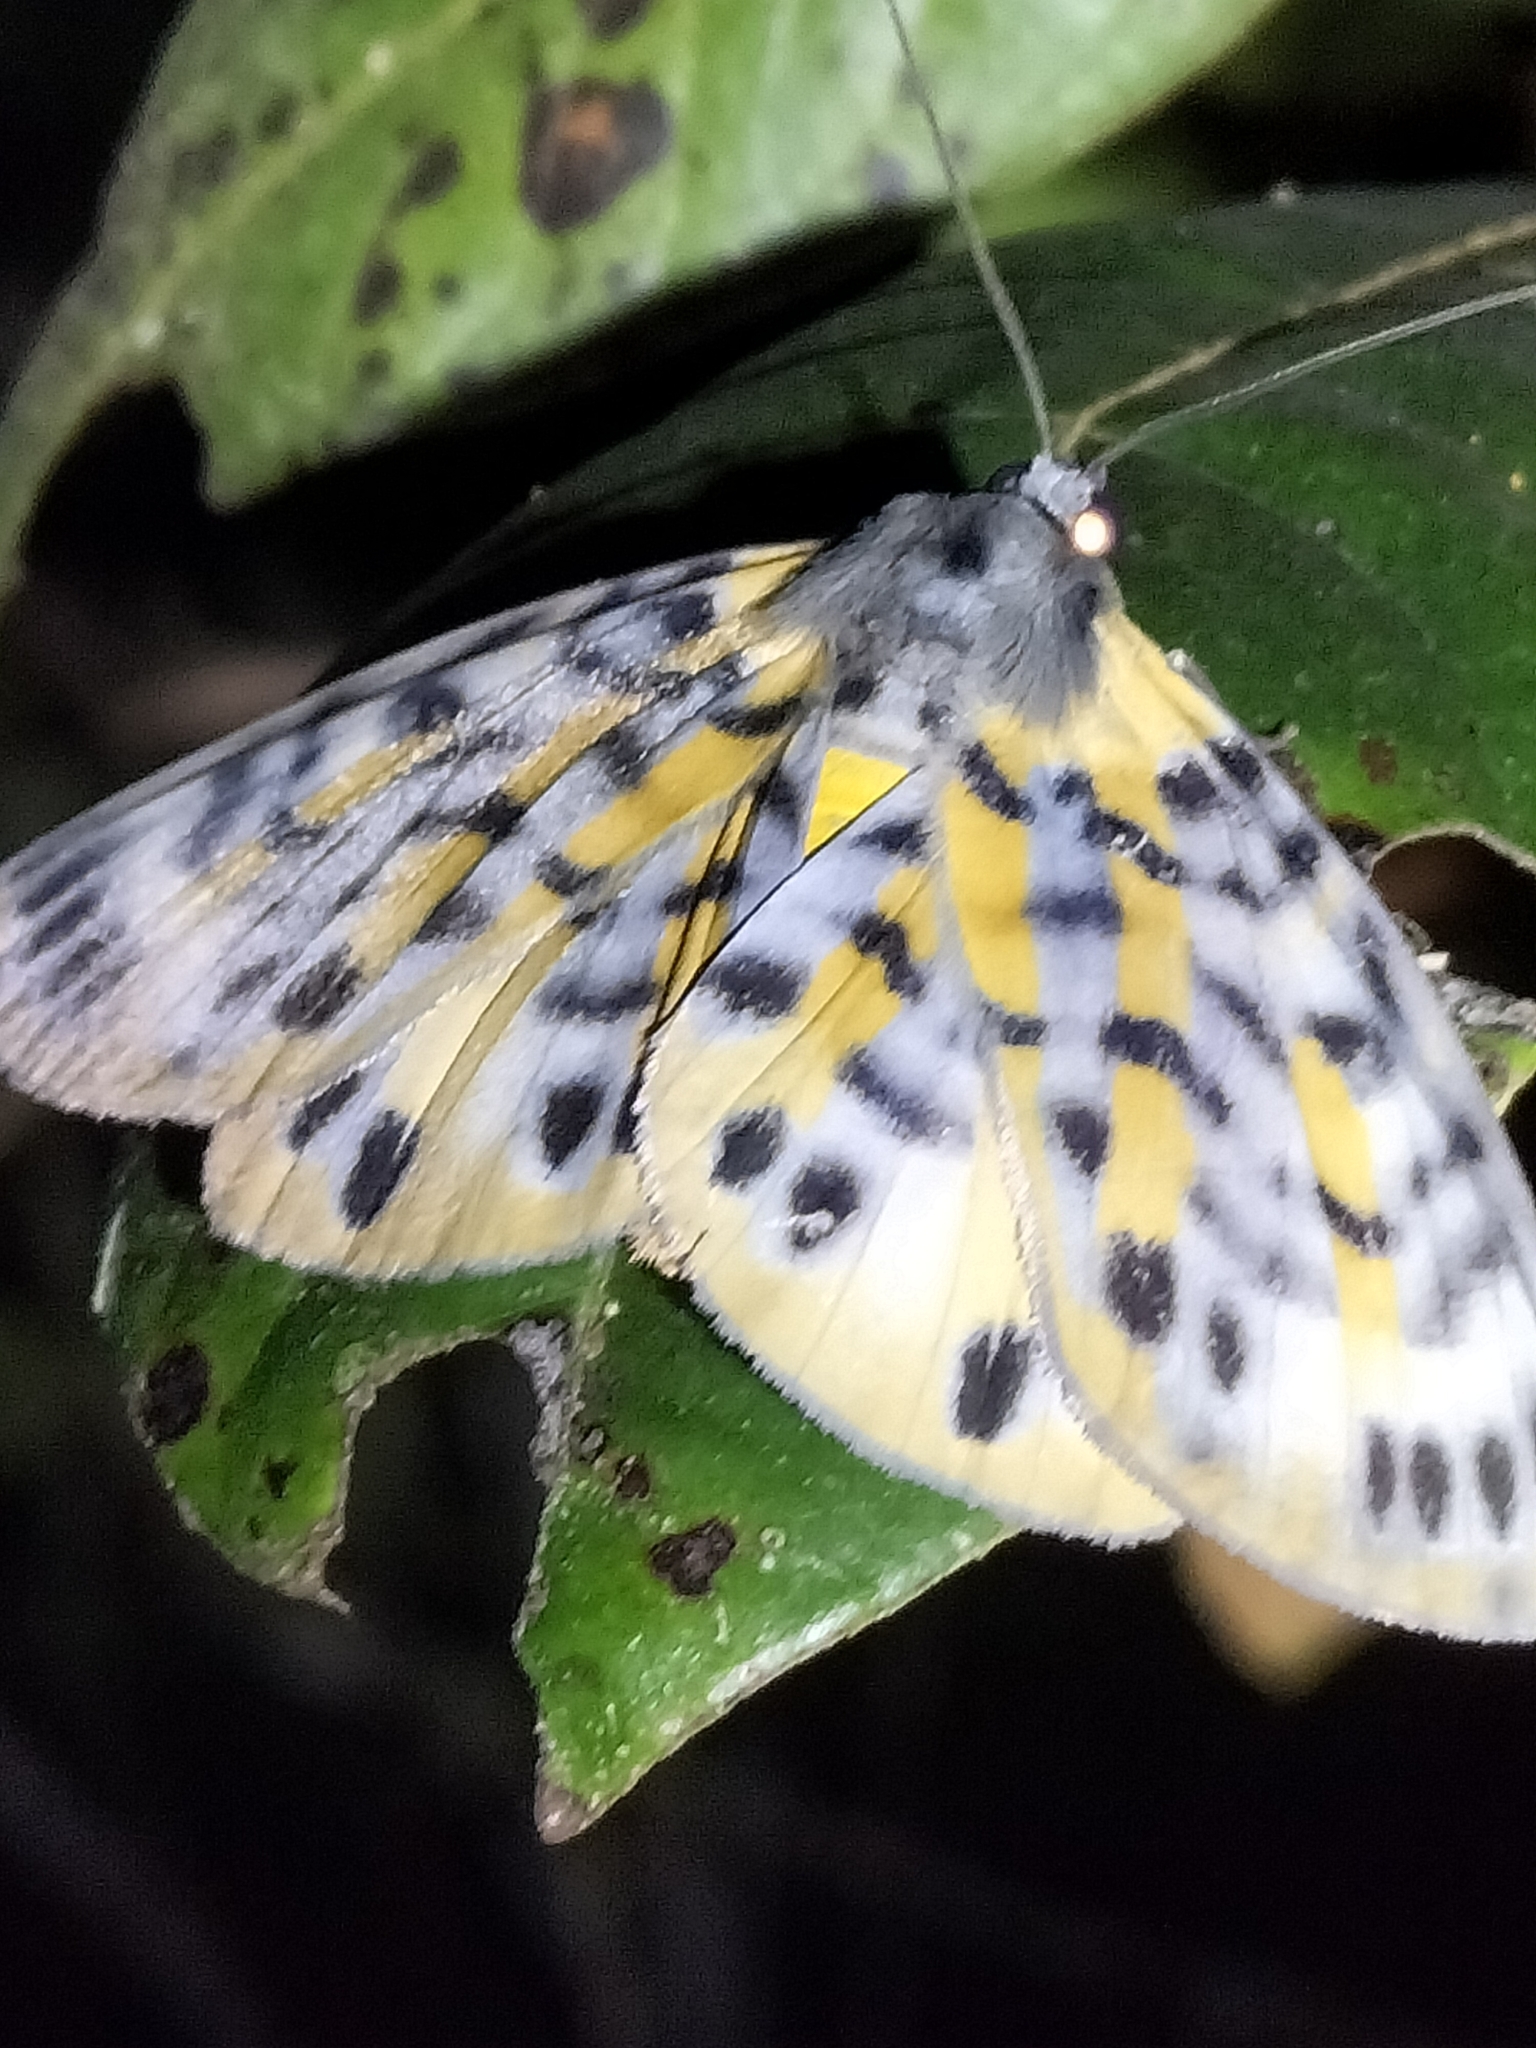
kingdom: Animalia
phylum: Arthropoda
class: Insecta
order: Lepidoptera
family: Geometridae
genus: Bracca
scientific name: Bracca rotundata
